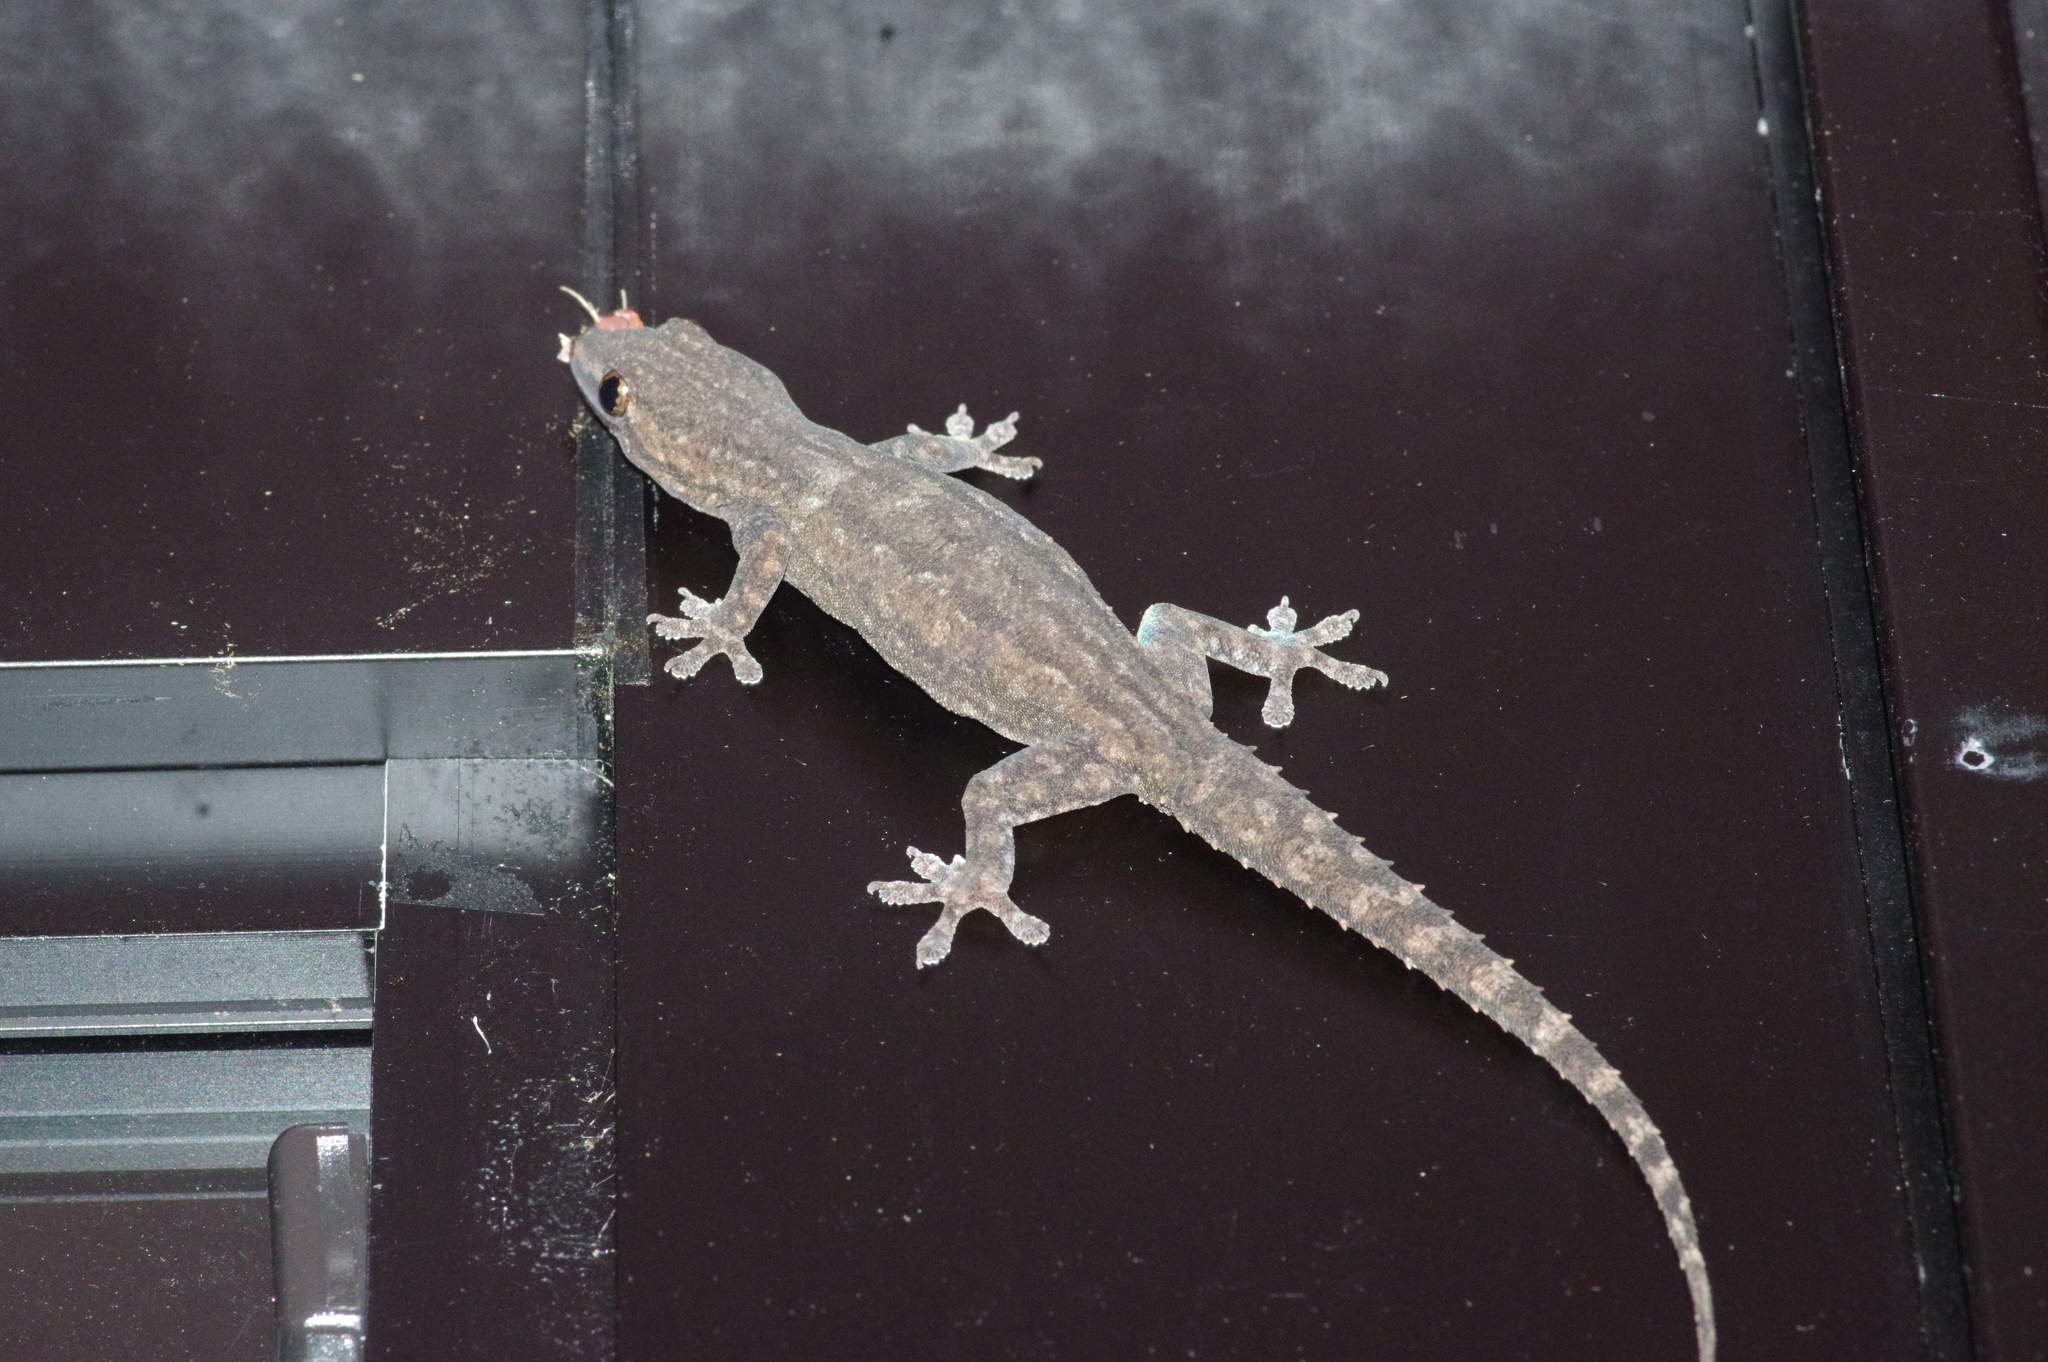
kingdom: Animalia
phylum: Chordata
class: Squamata
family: Gekkonidae
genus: Hemidactylus
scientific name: Hemidactylus frenatus
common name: Common house gecko
